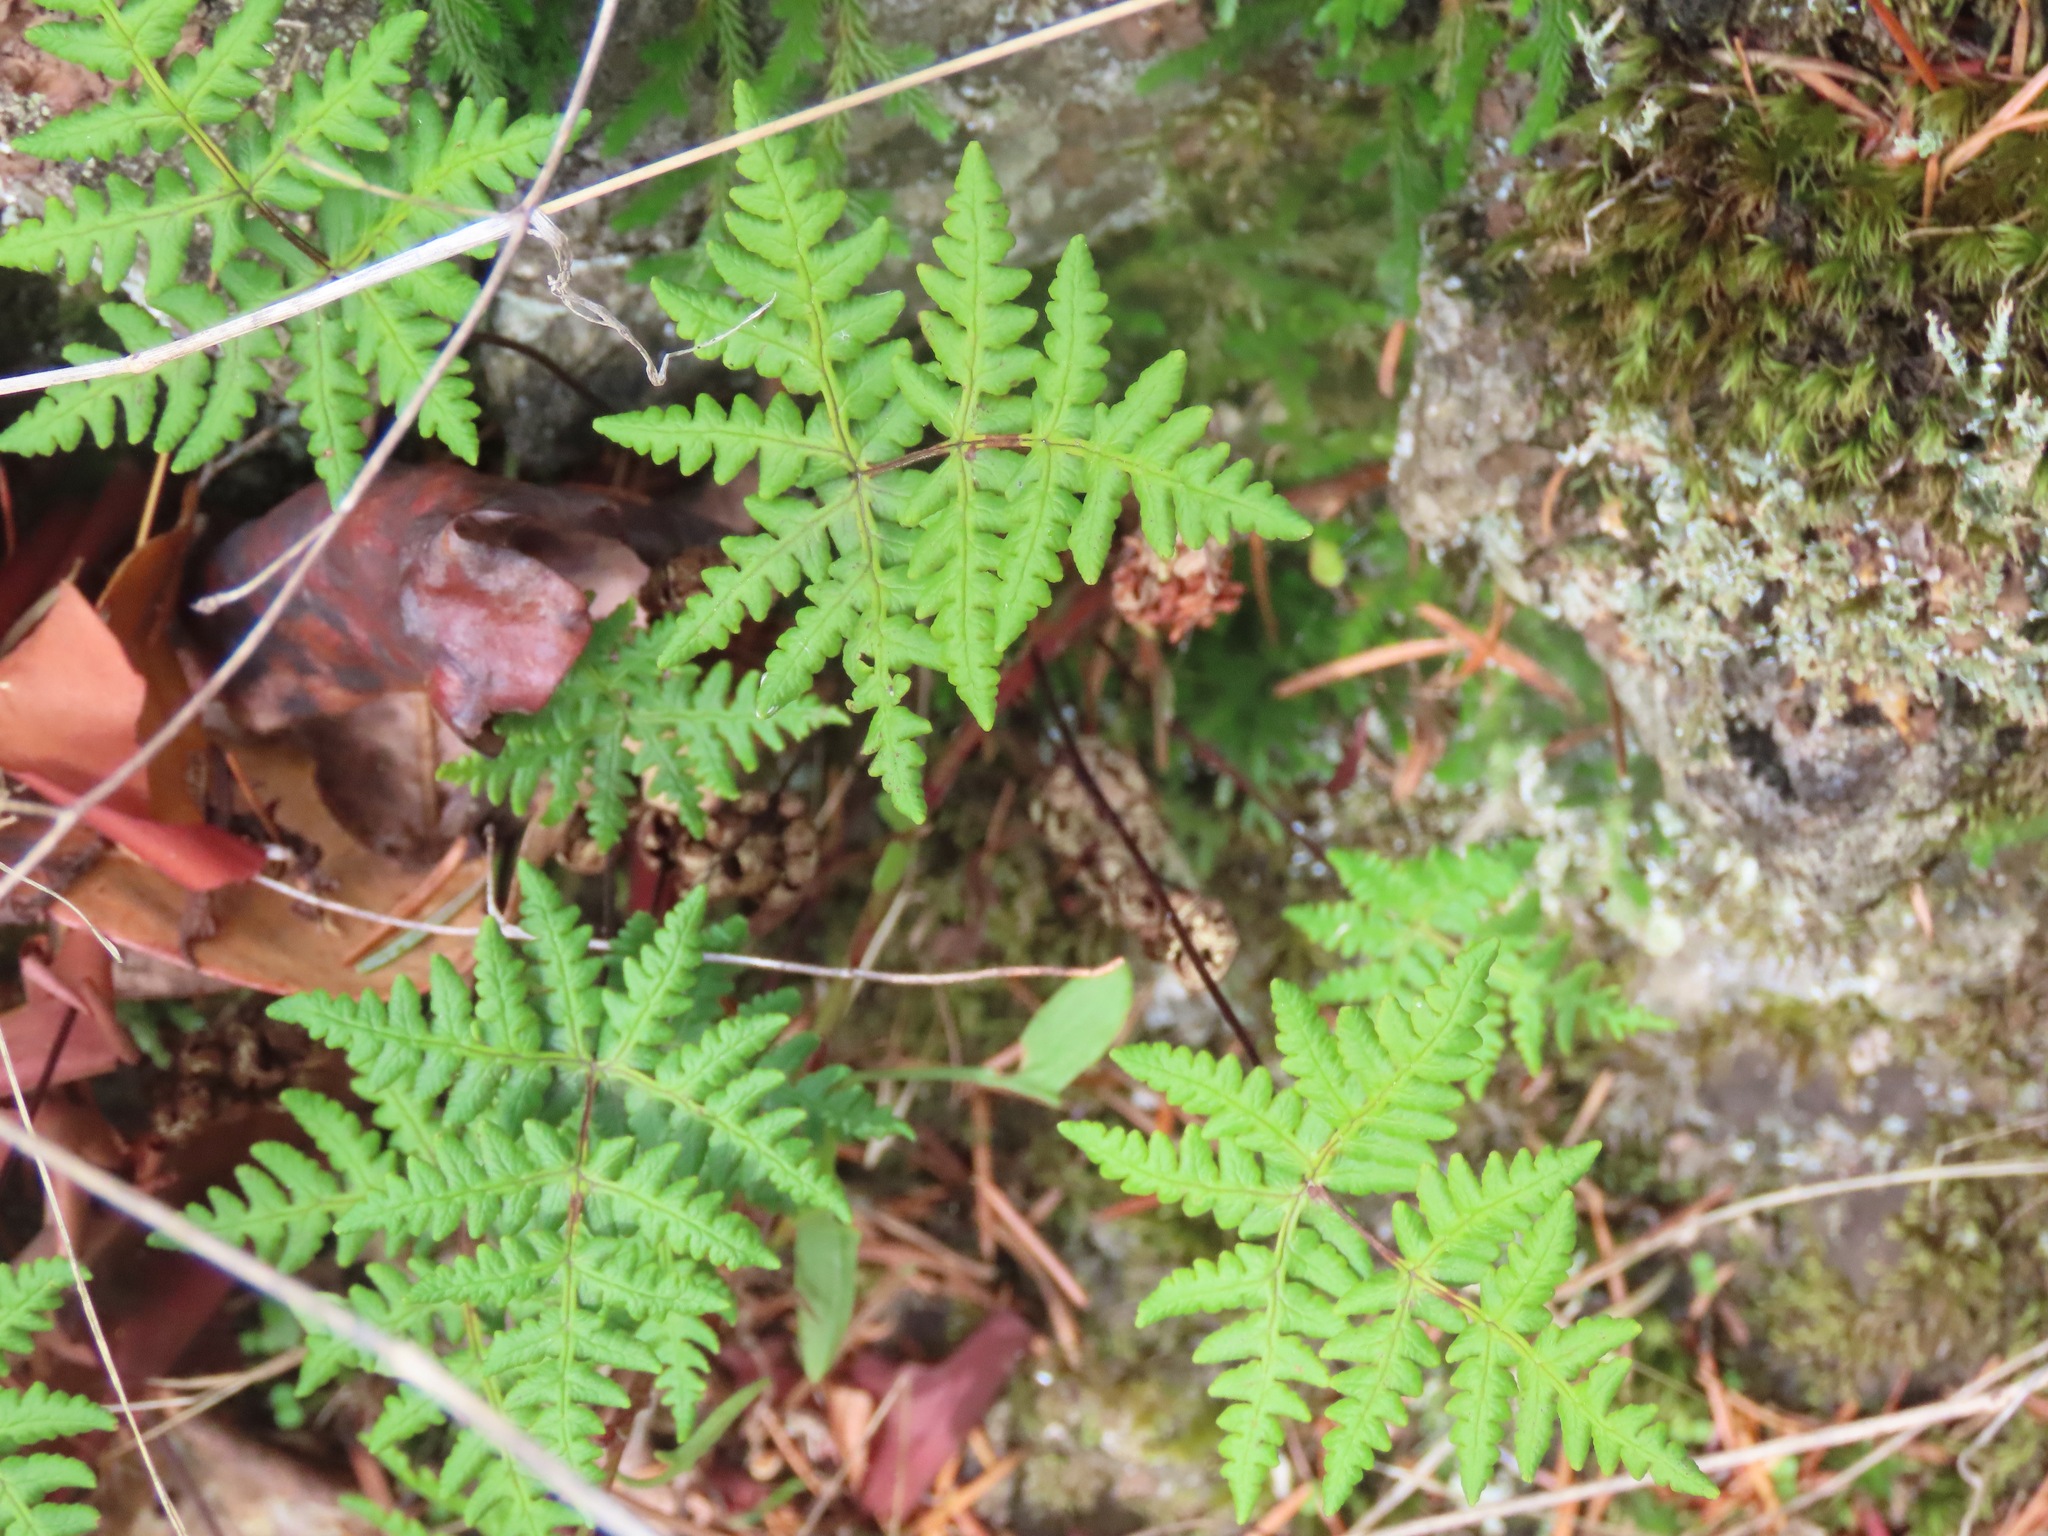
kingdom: Plantae
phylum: Tracheophyta
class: Polypodiopsida
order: Polypodiales
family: Pteridaceae
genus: Pentagramma
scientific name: Pentagramma triangularis
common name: Gold fern
